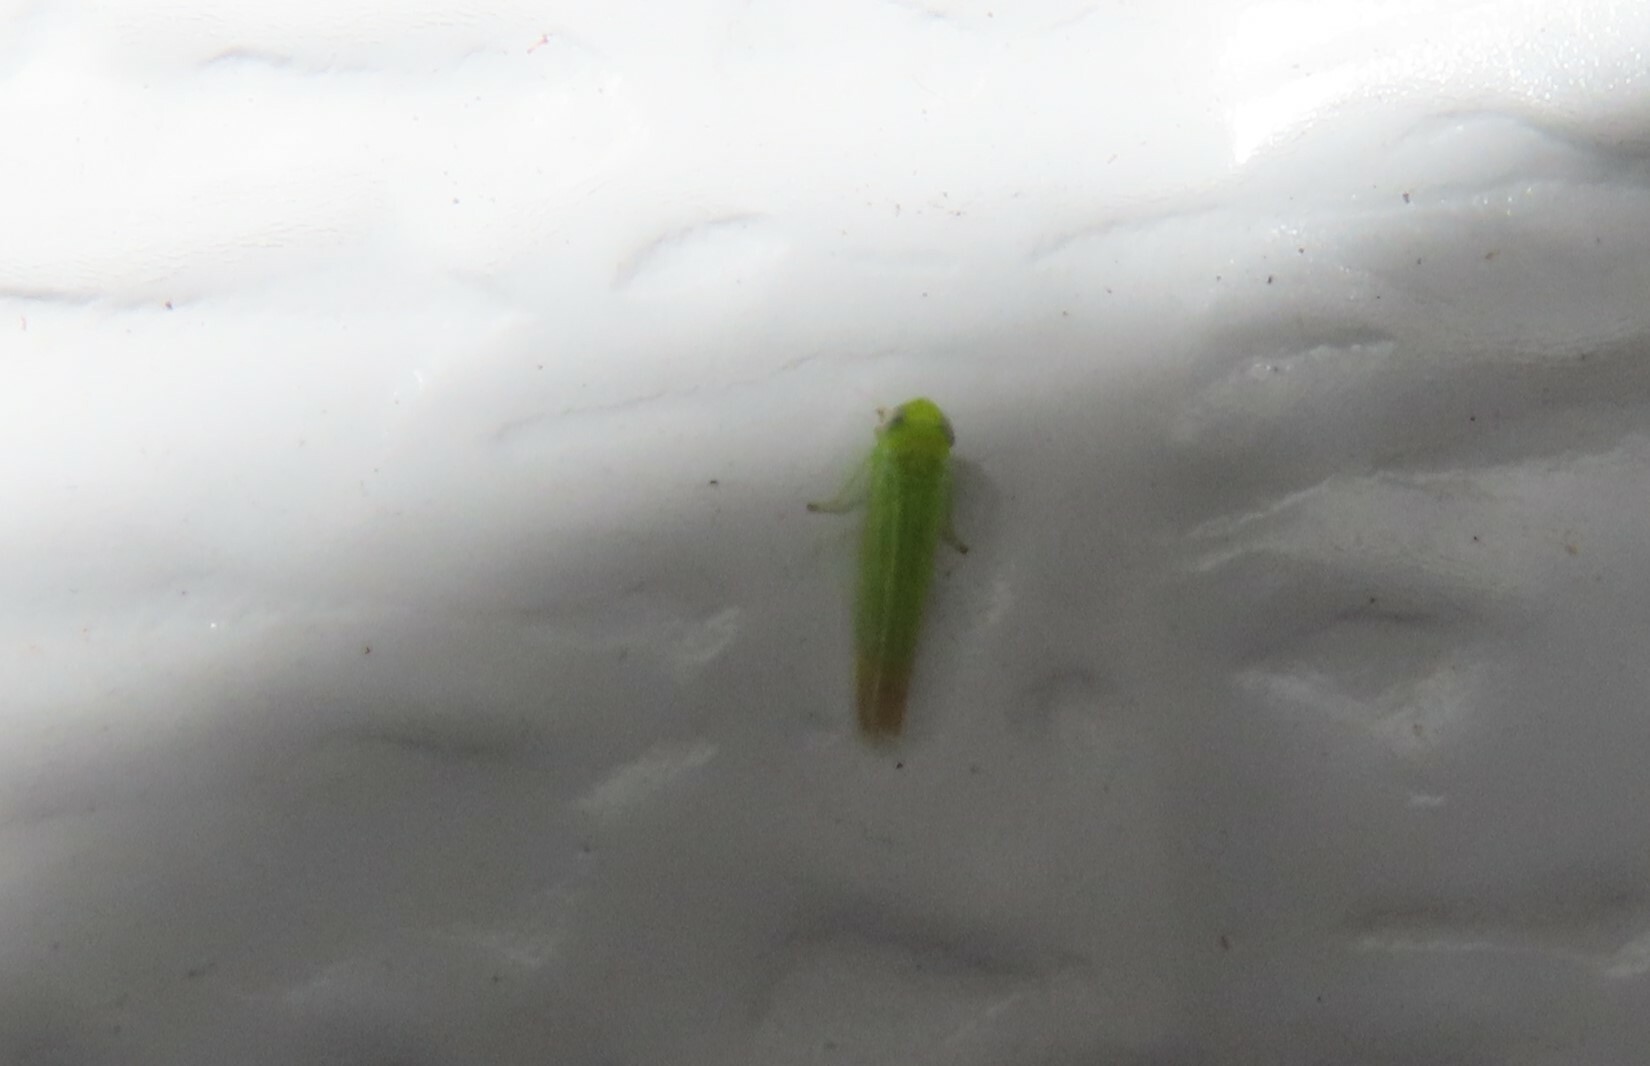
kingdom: Animalia
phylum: Arthropoda
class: Insecta
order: Hemiptera
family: Cicadellidae
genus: Empoasca
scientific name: Empoasca fabae
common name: Potato leafhopper
